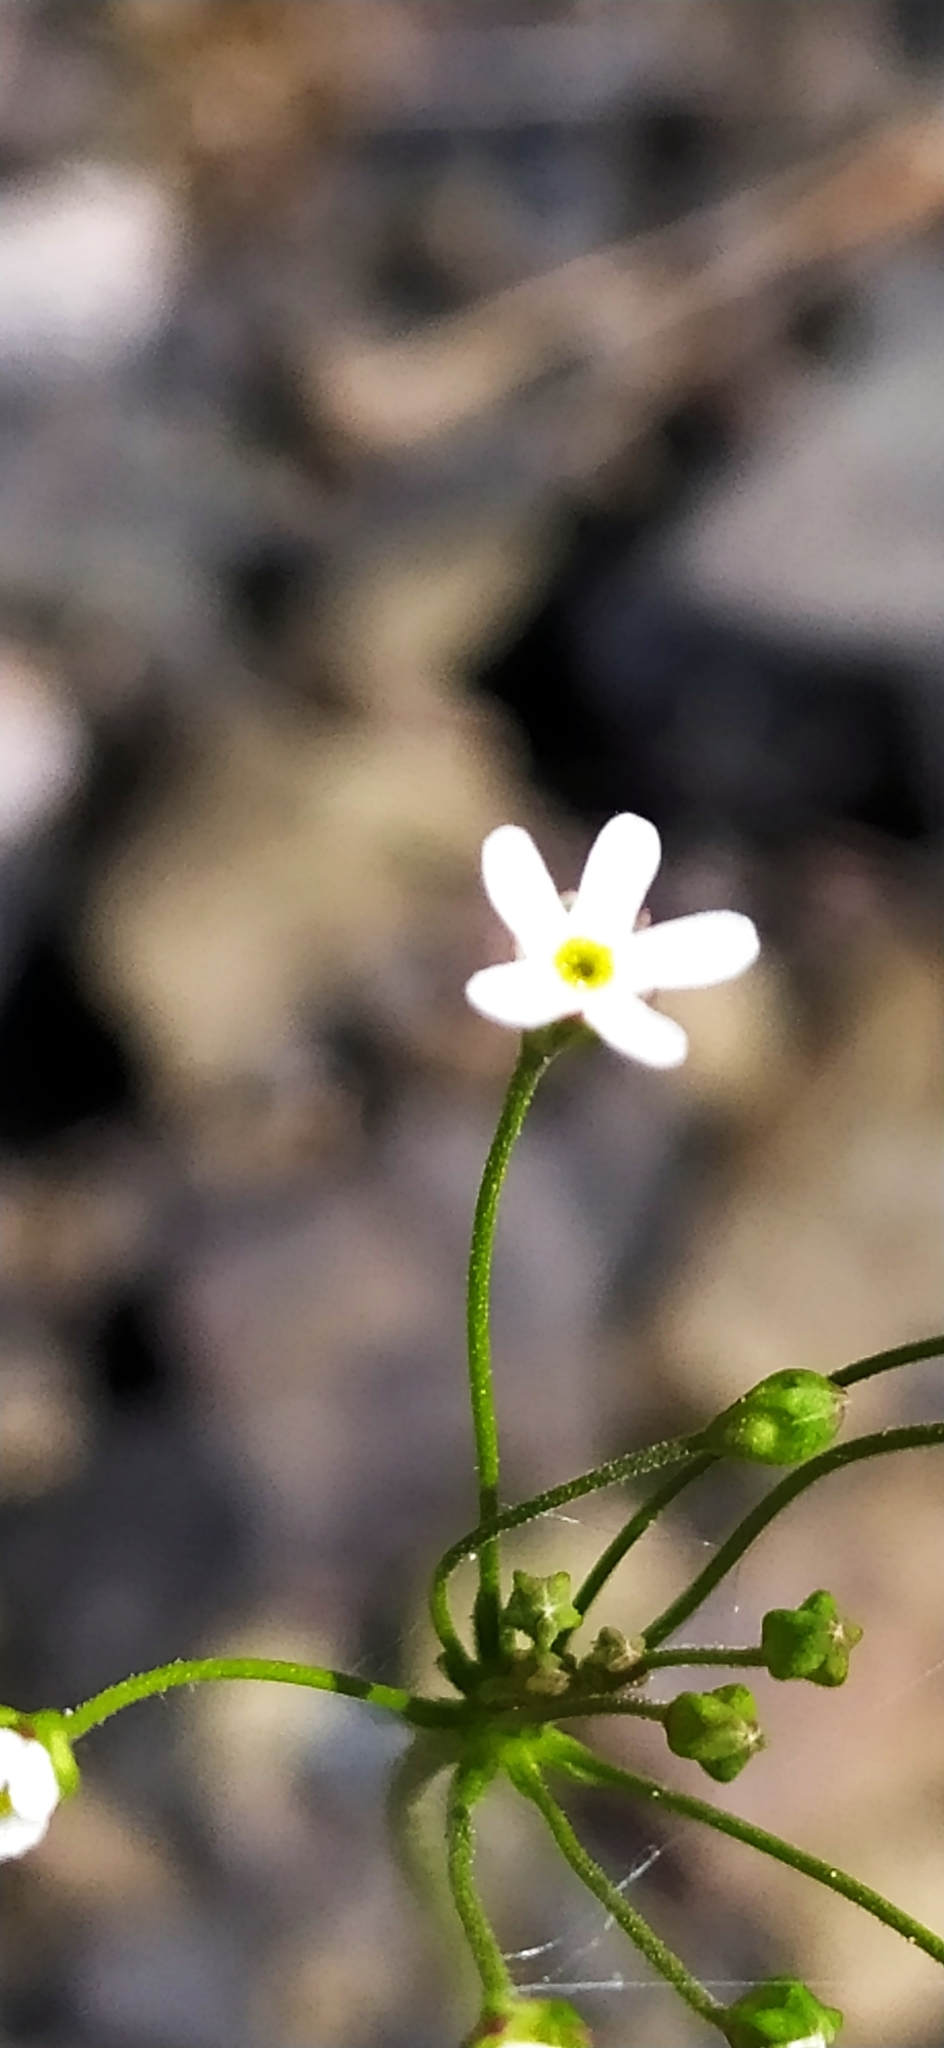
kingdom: Plantae
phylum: Tracheophyta
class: Magnoliopsida
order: Ericales
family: Primulaceae
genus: Androsace
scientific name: Androsace septentrionalis
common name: Hairy northern fairy-candelabra
